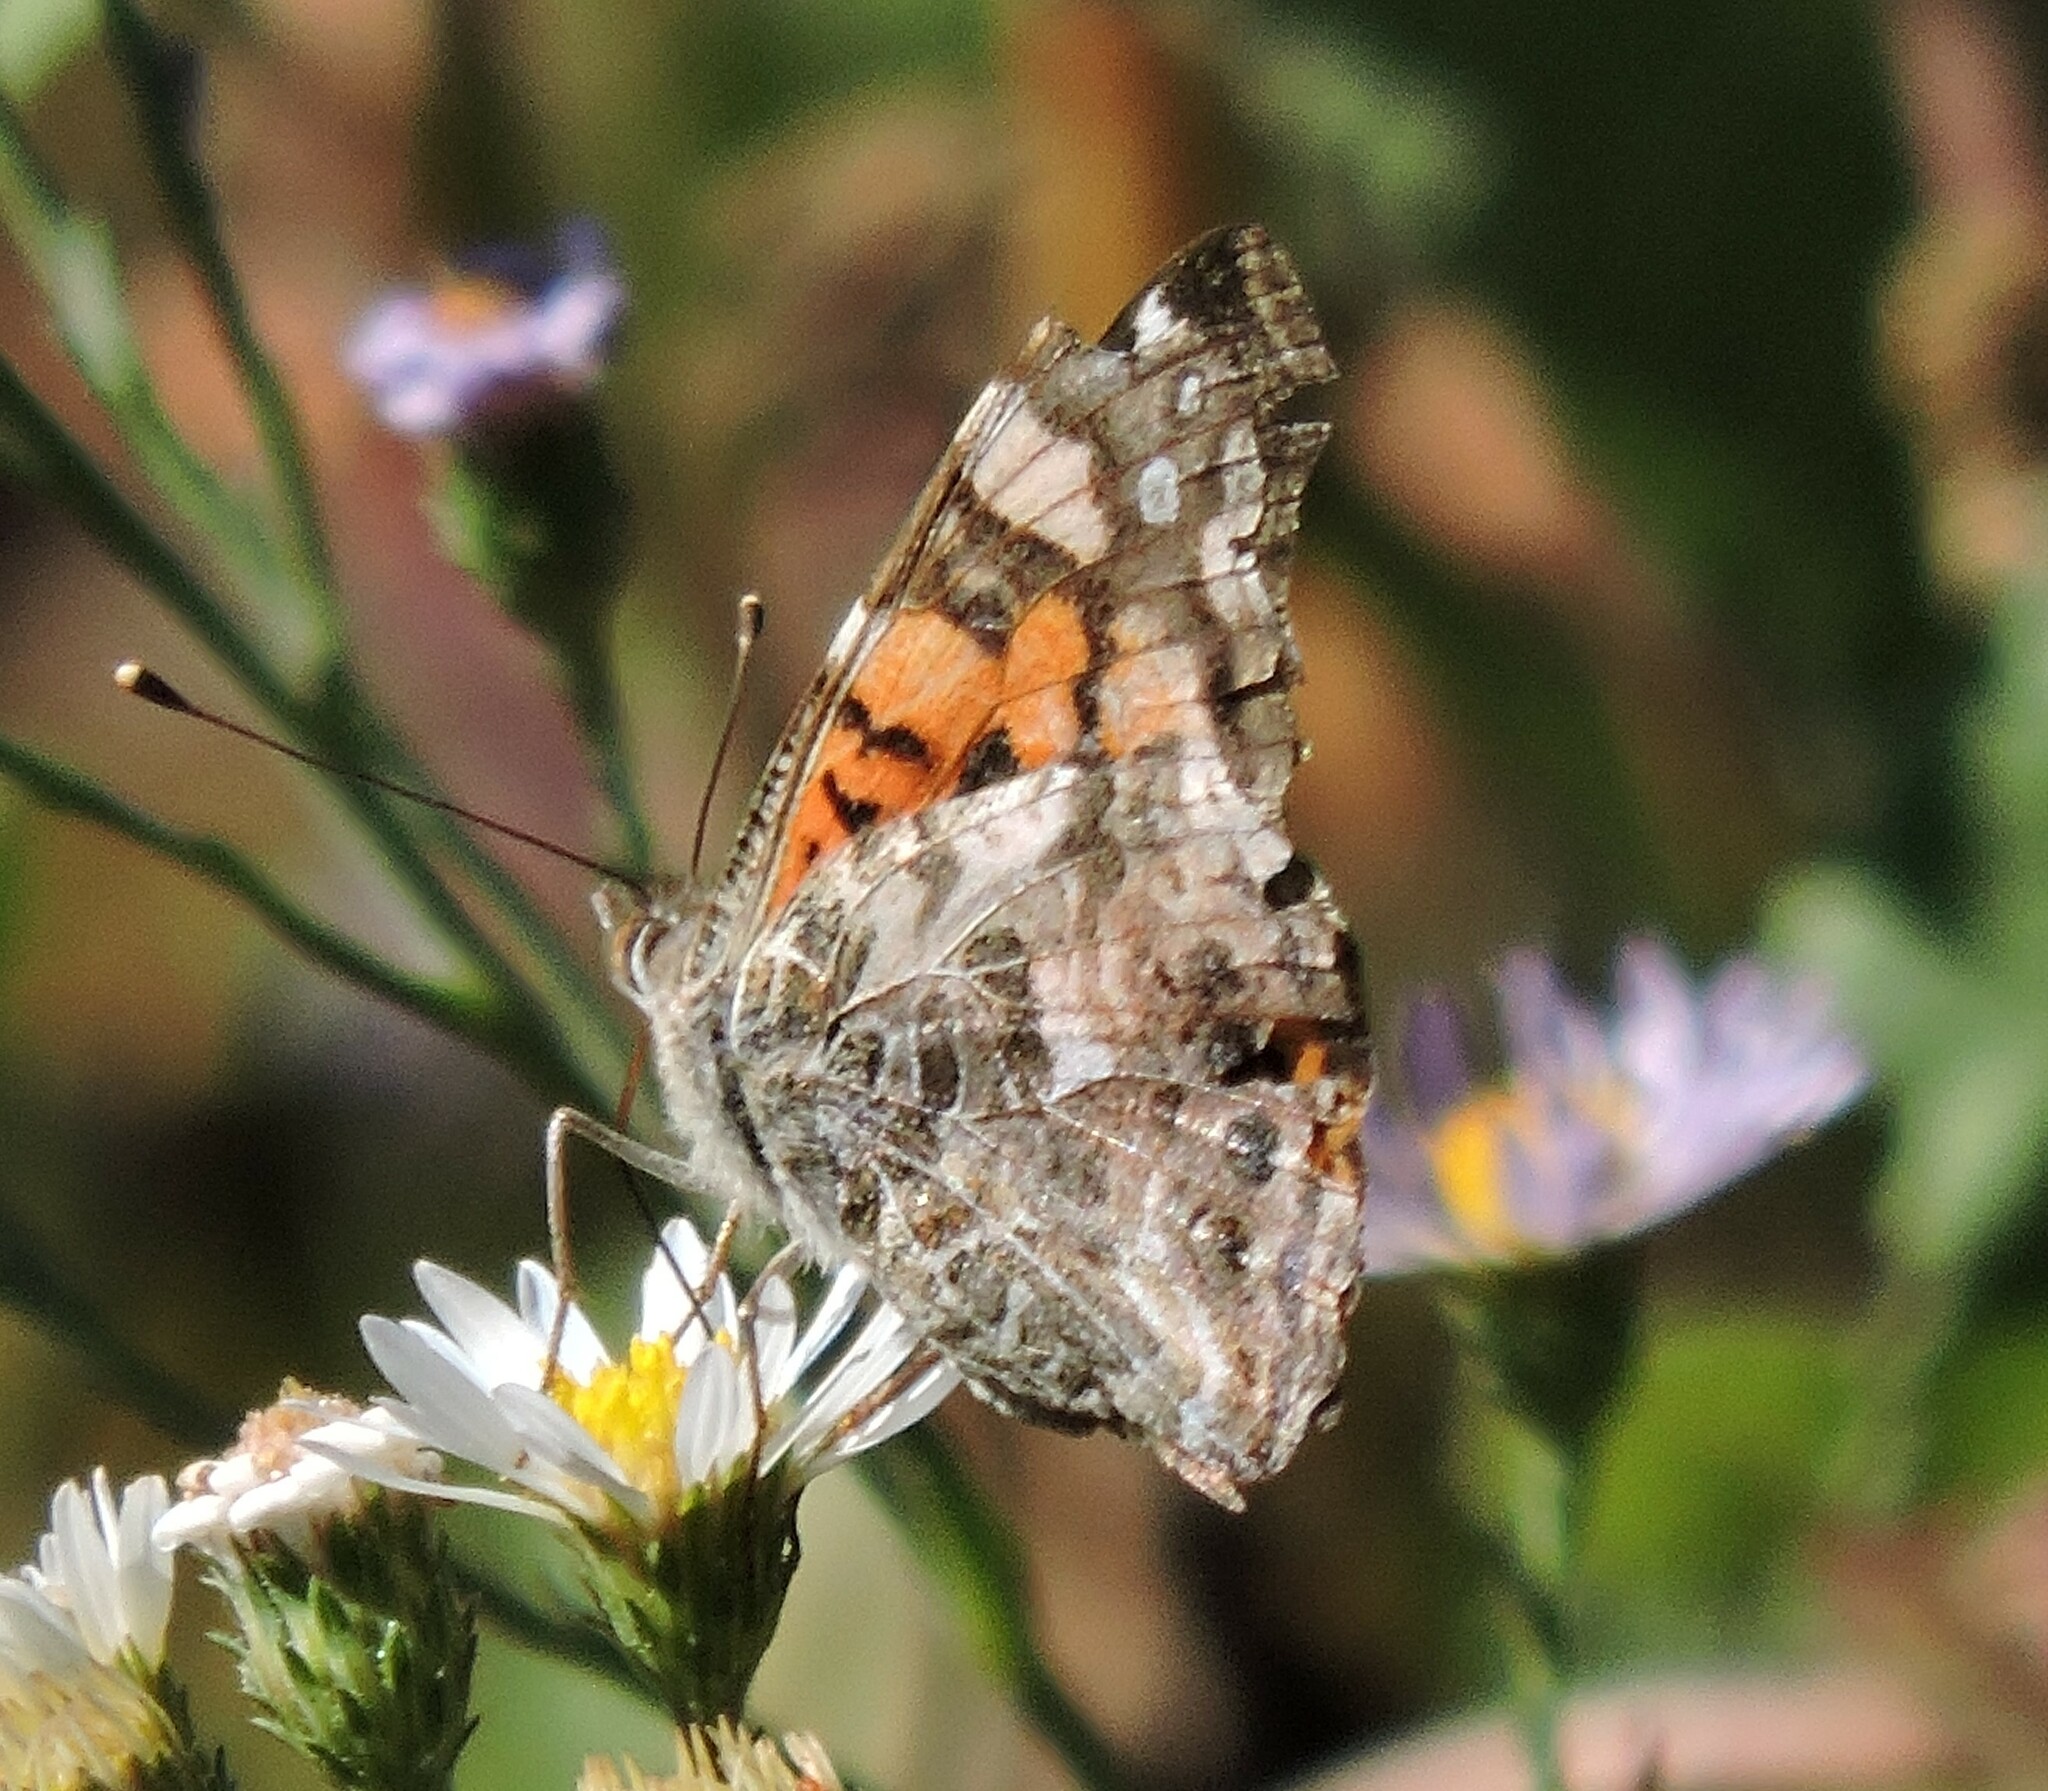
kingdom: Animalia
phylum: Arthropoda
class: Insecta
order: Lepidoptera
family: Nymphalidae
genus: Vanessa
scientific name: Vanessa annabella
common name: West coast lady
